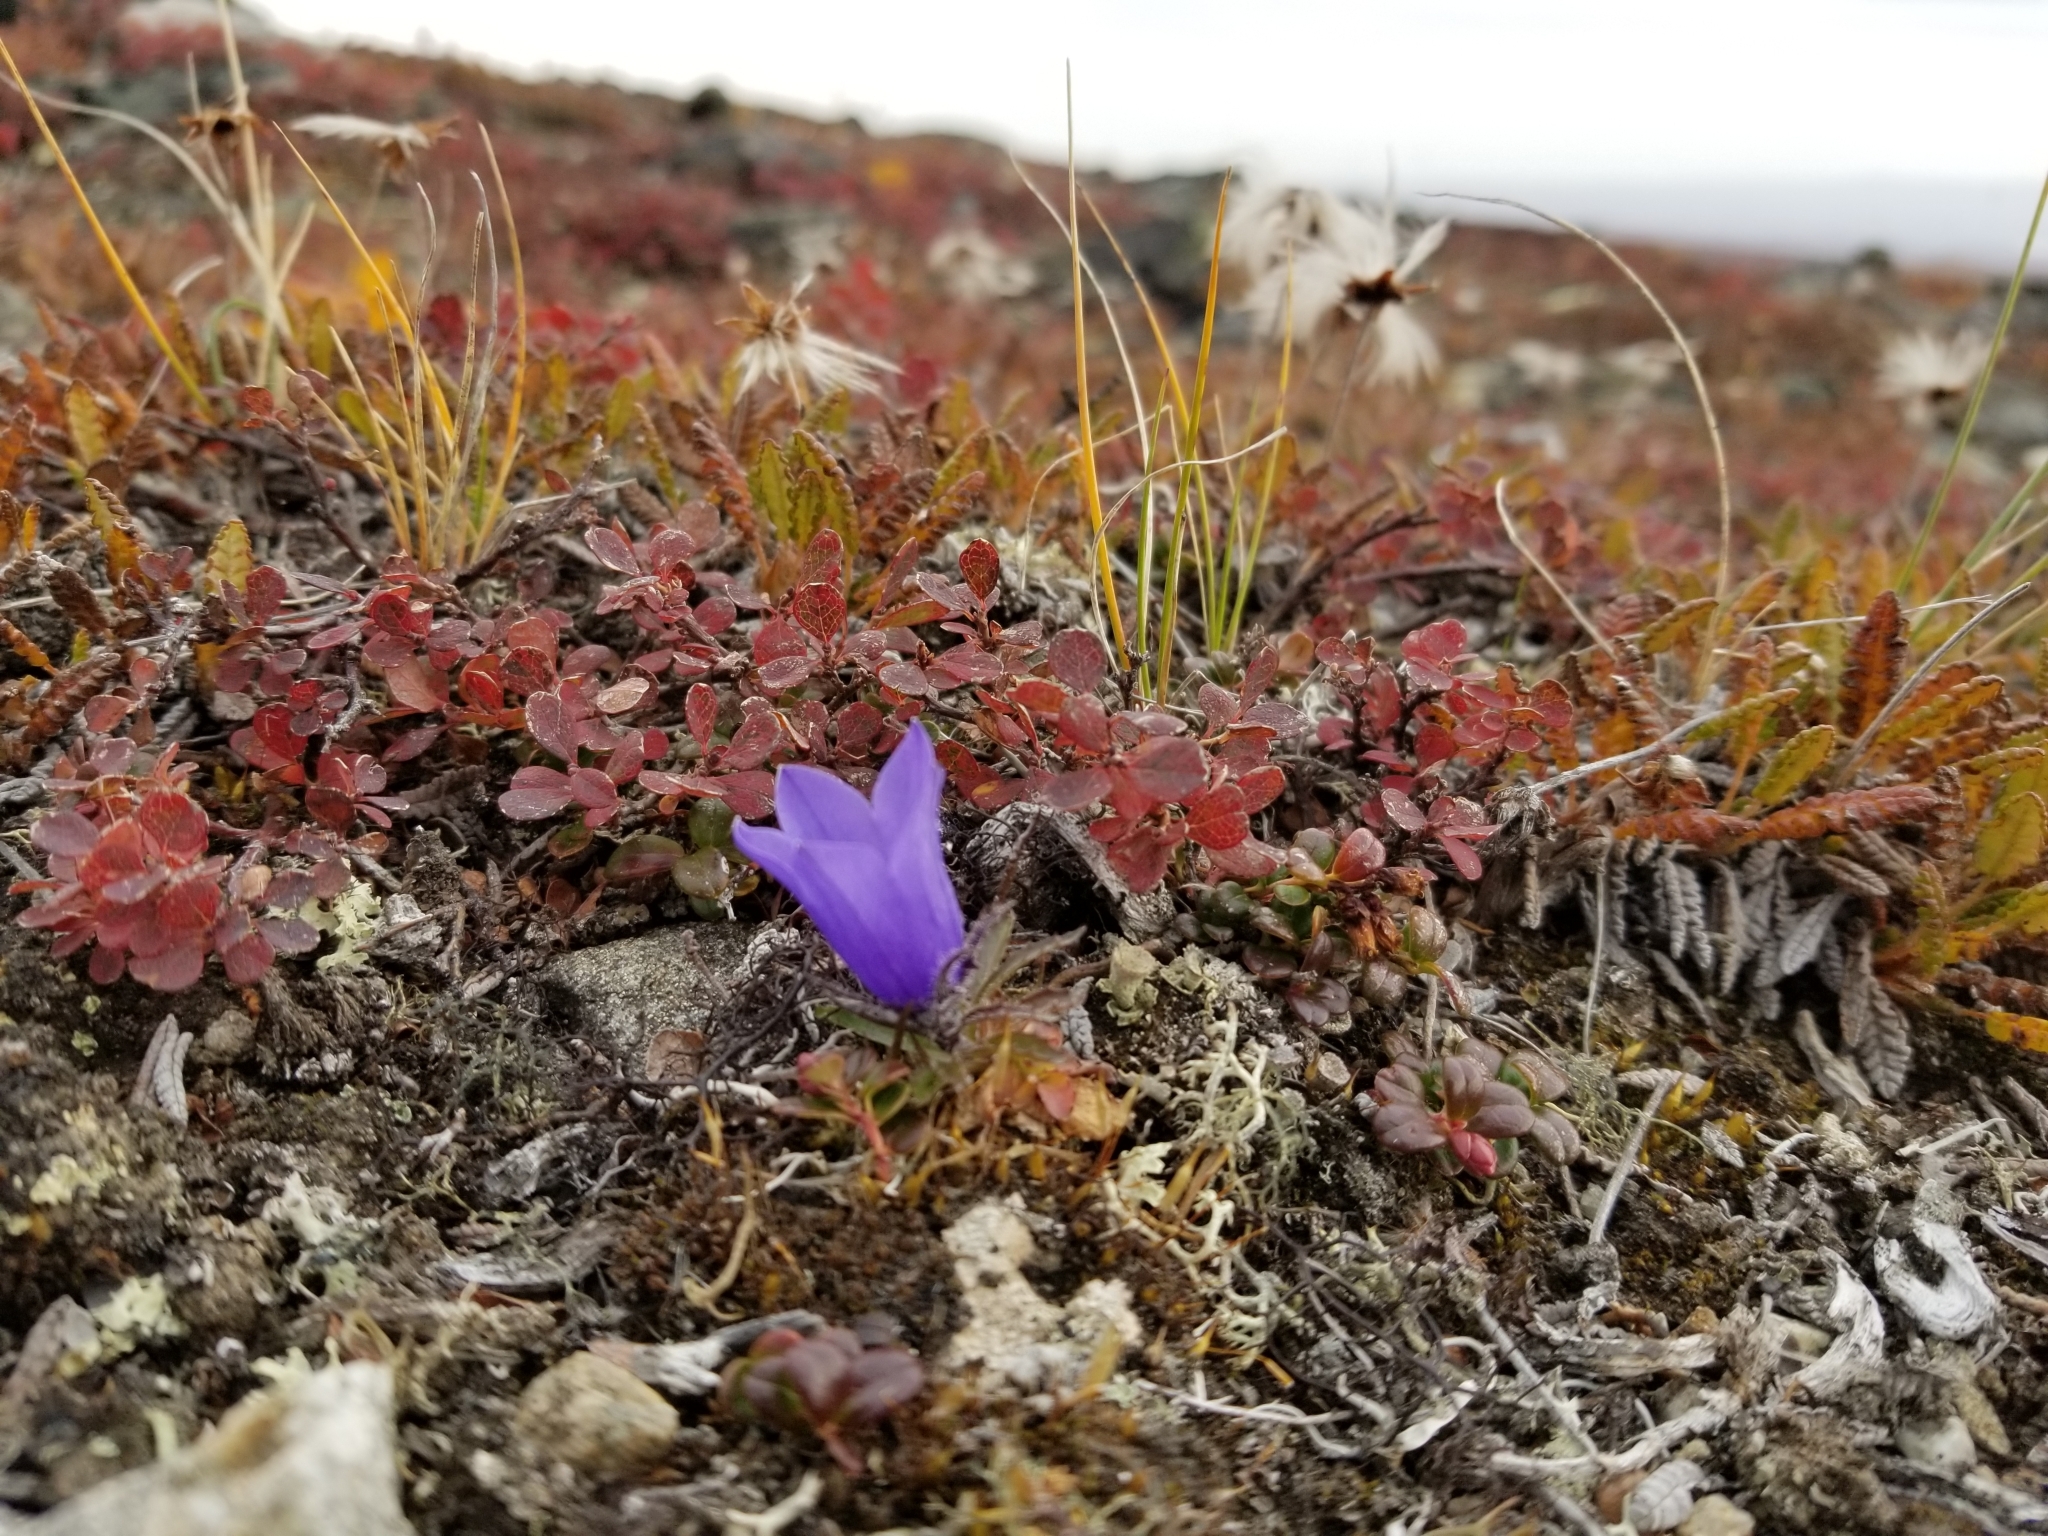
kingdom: Plantae
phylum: Tracheophyta
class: Magnoliopsida
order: Asterales
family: Campanulaceae
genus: Campanula
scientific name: Campanula lasiocarpa
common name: Mountain harebell
